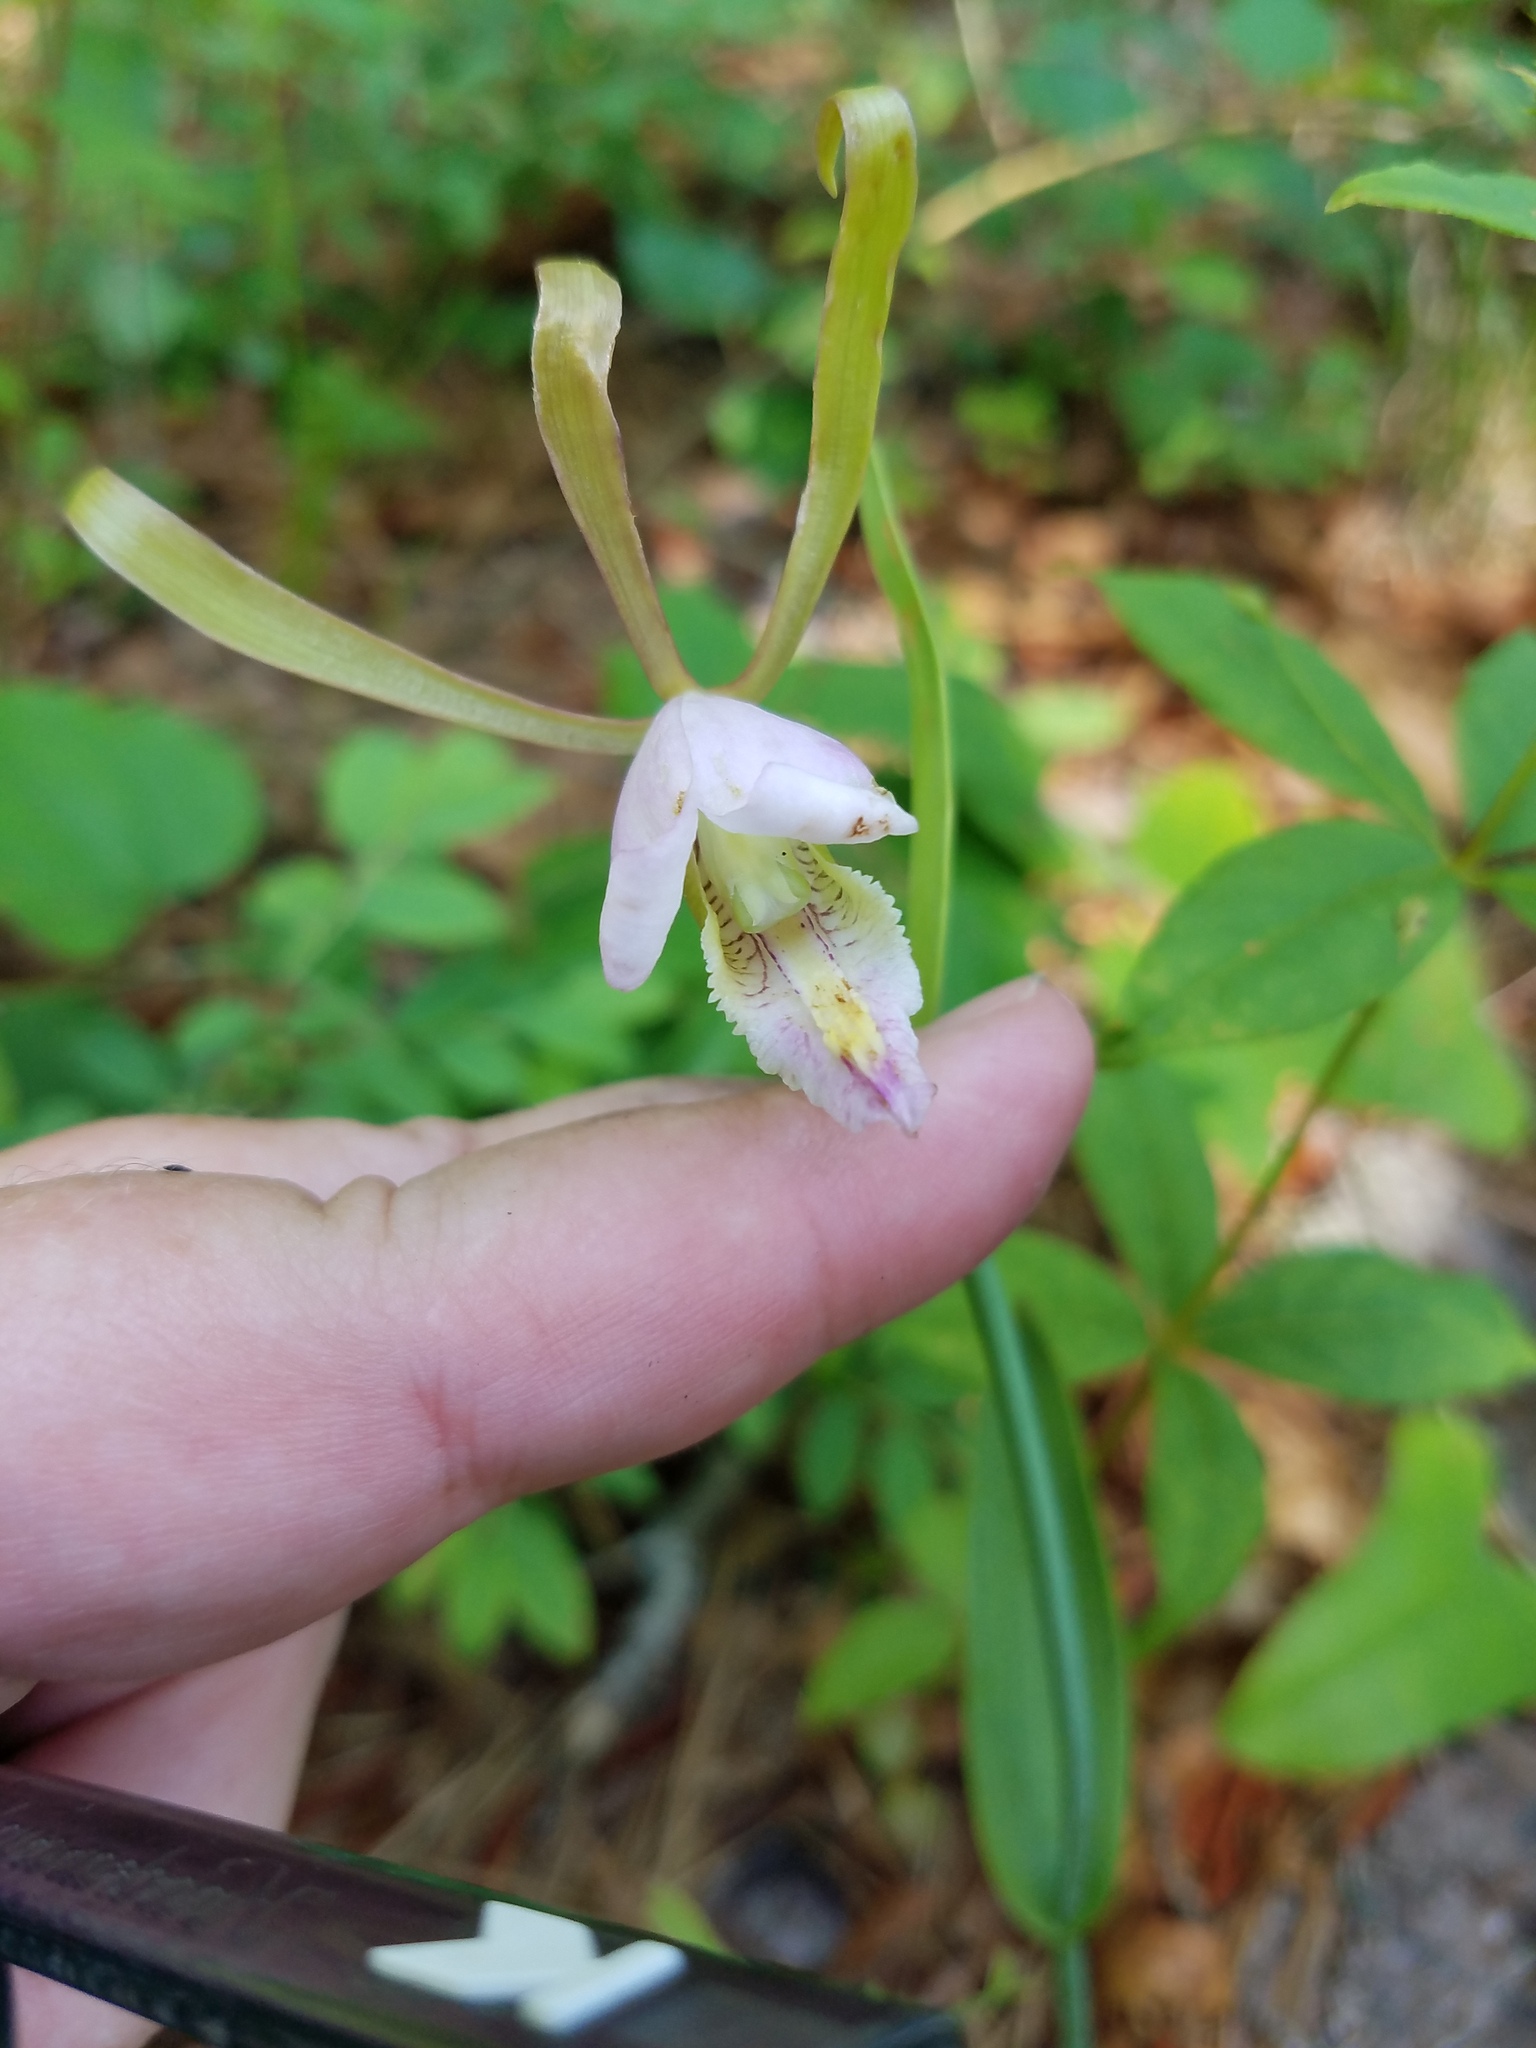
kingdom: Plantae
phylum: Tracheophyta
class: Liliopsida
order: Asparagales
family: Orchidaceae
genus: Cleistesiopsis
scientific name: Cleistesiopsis bifaria
